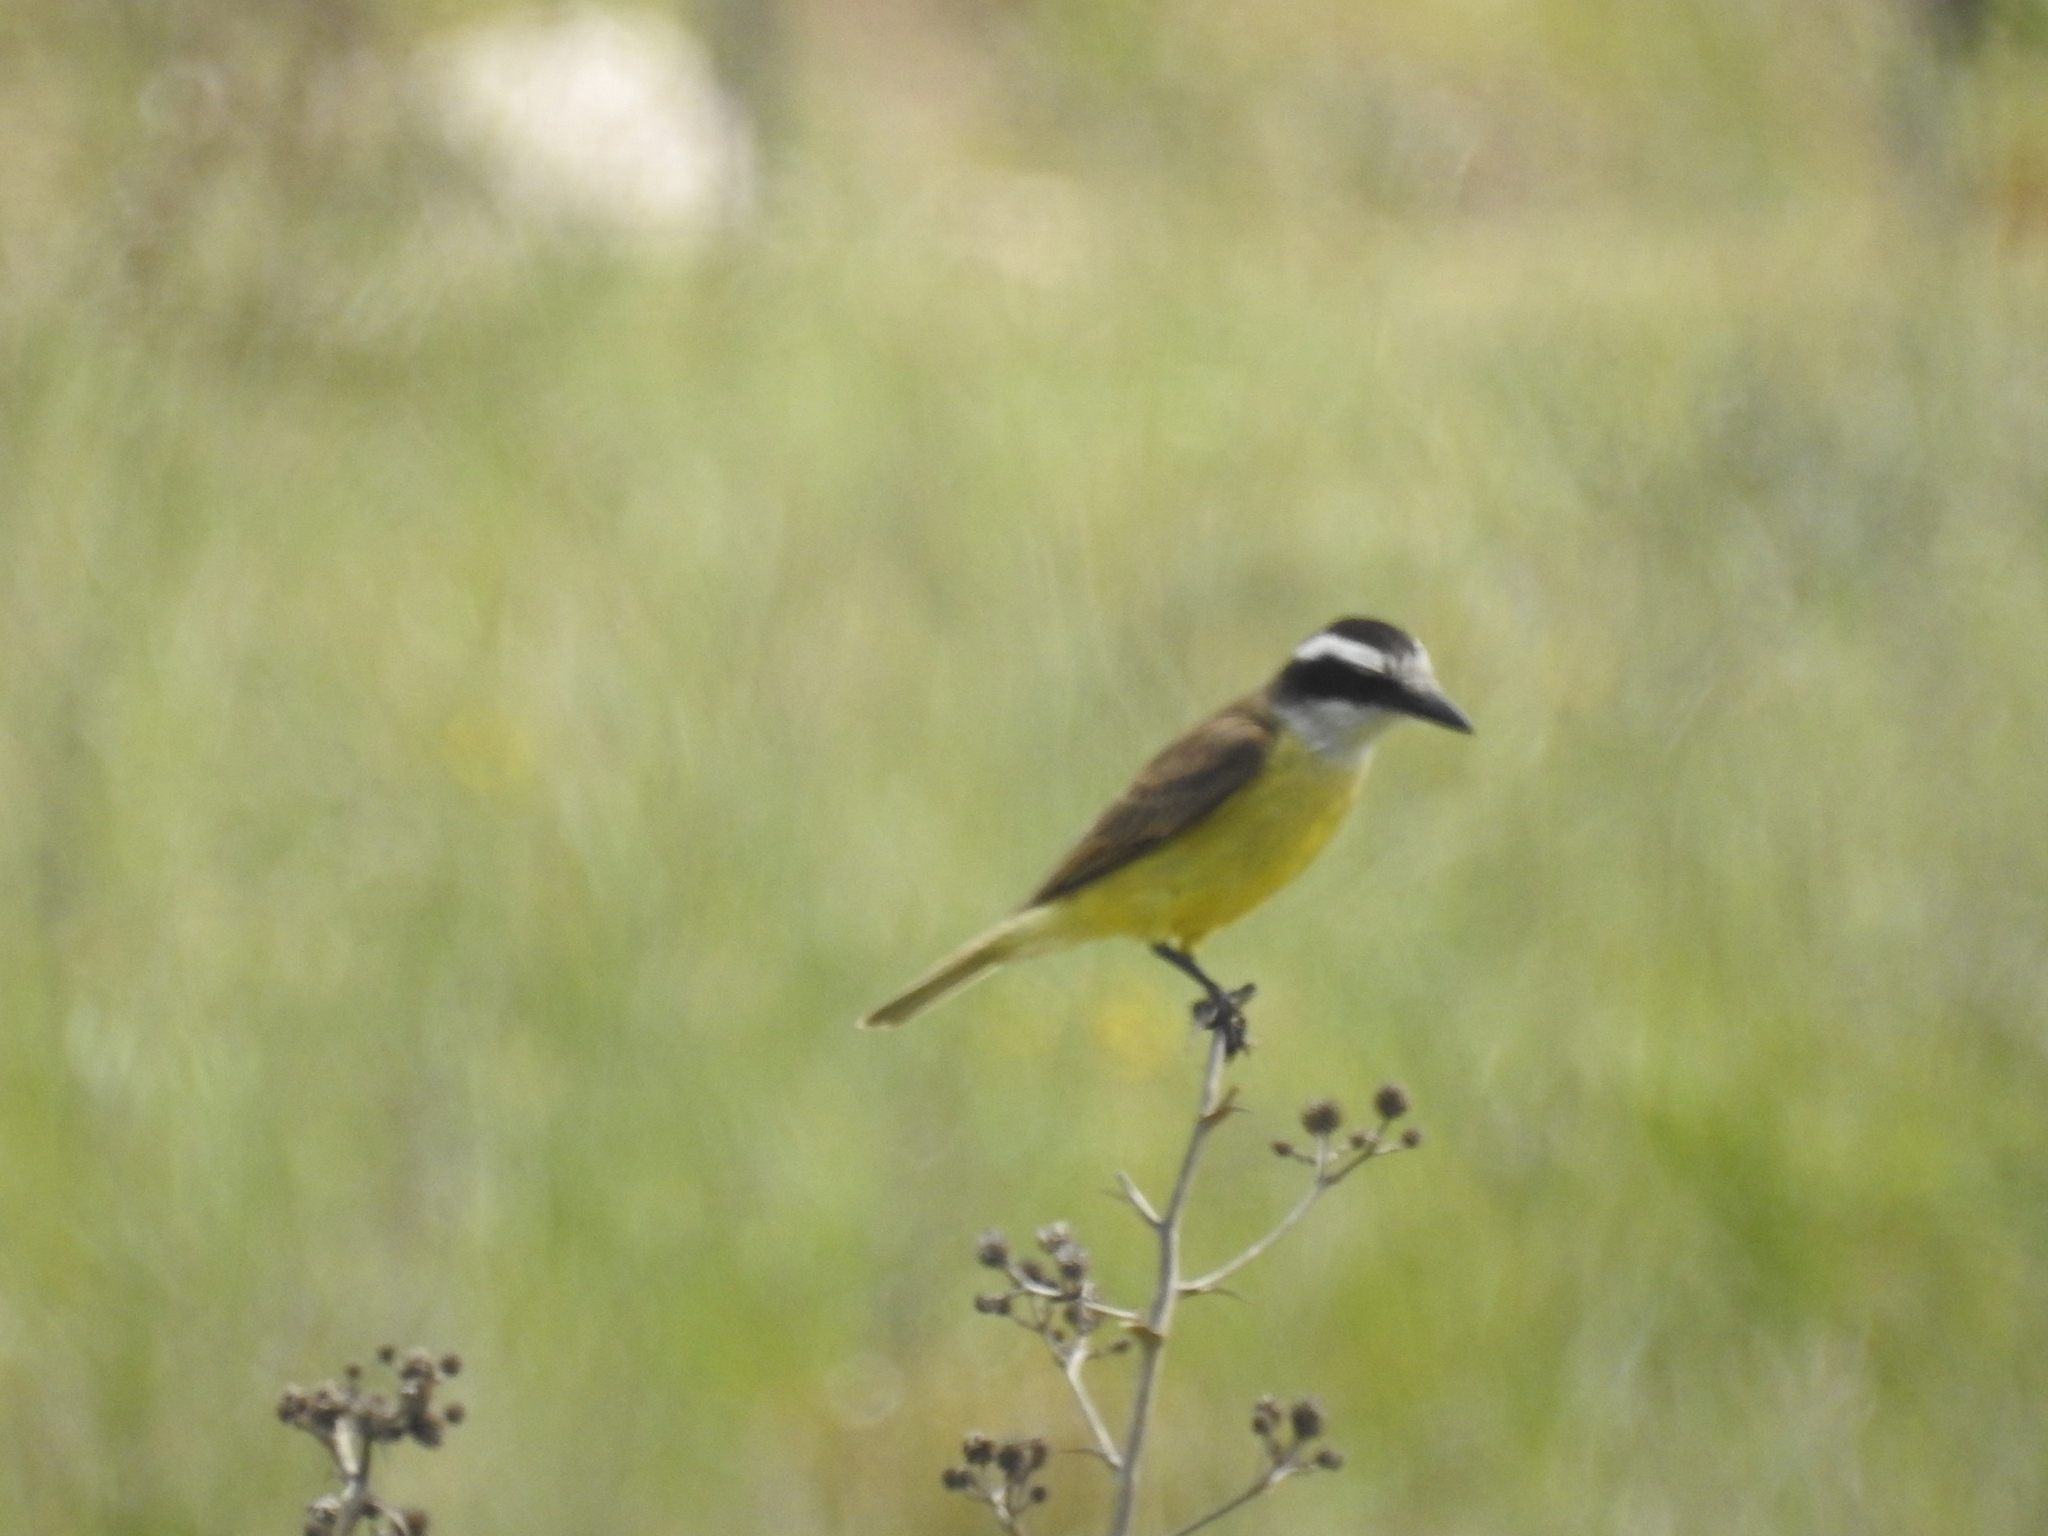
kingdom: Animalia
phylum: Chordata
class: Aves
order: Passeriformes
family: Tyrannidae
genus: Pitangus
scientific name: Pitangus sulphuratus
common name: Great kiskadee
